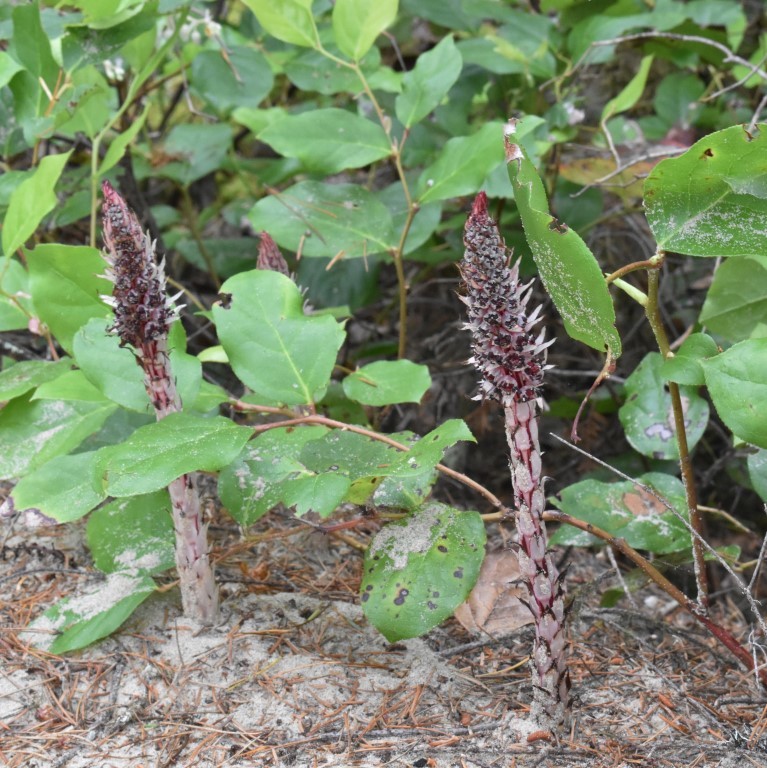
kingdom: Plantae
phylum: Tracheophyta
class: Magnoliopsida
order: Ericales
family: Ericaceae
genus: Allotropa
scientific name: Allotropa virgata
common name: Candy-striped allotropa
